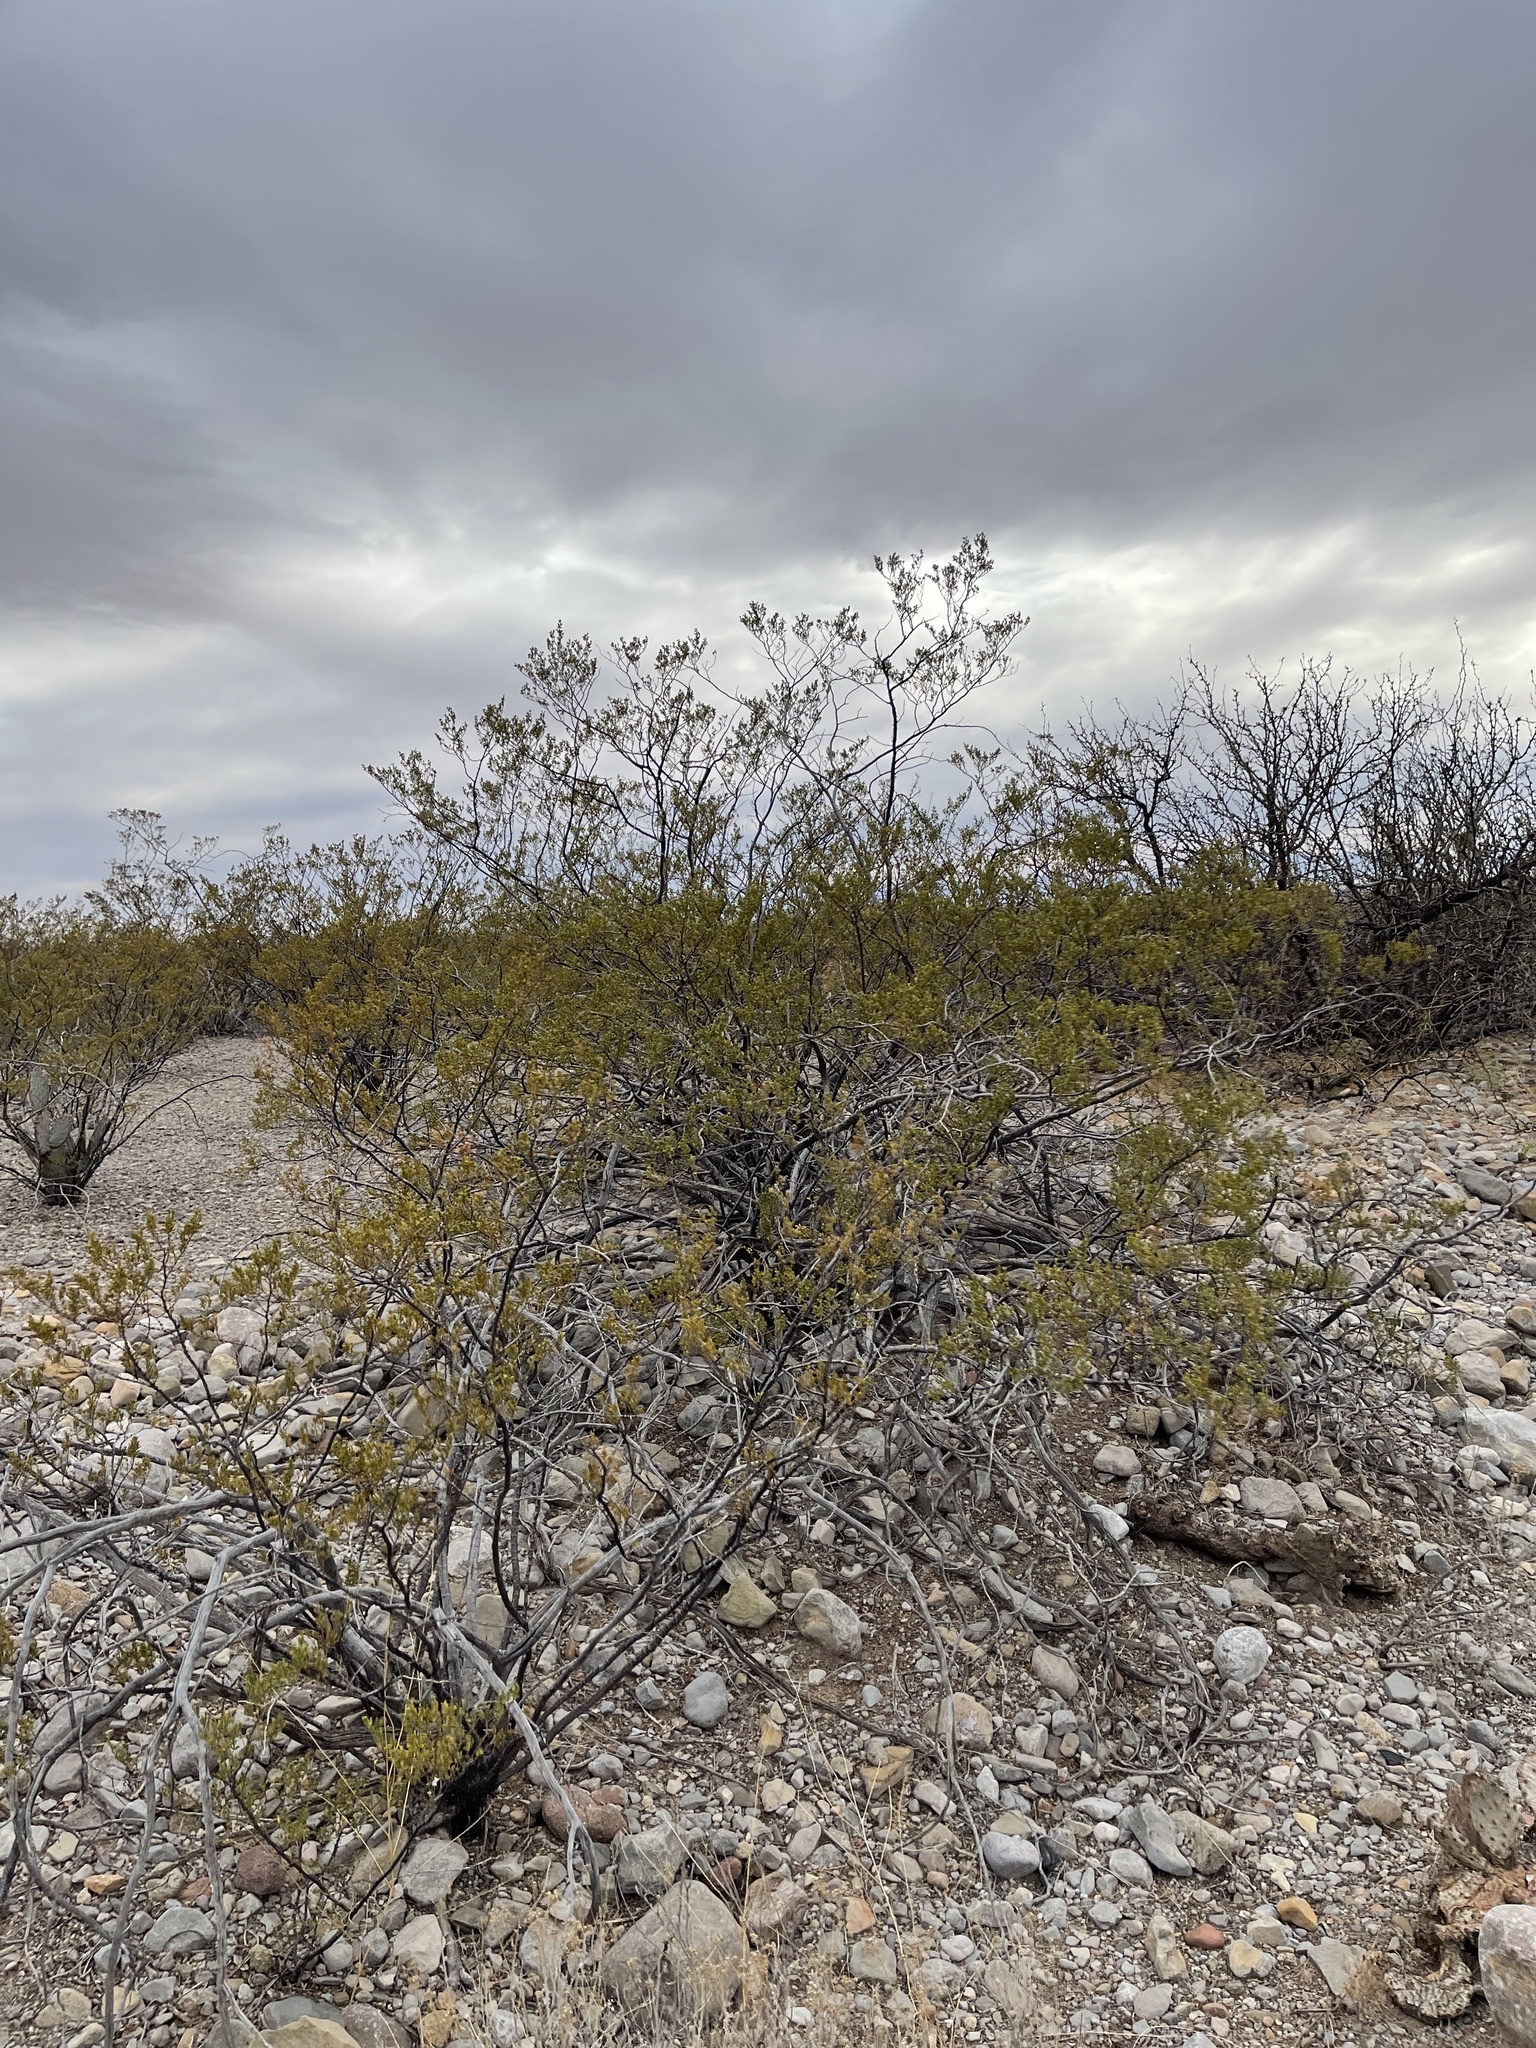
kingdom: Plantae
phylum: Tracheophyta
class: Magnoliopsida
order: Zygophyllales
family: Zygophyllaceae
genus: Larrea
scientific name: Larrea tridentata
